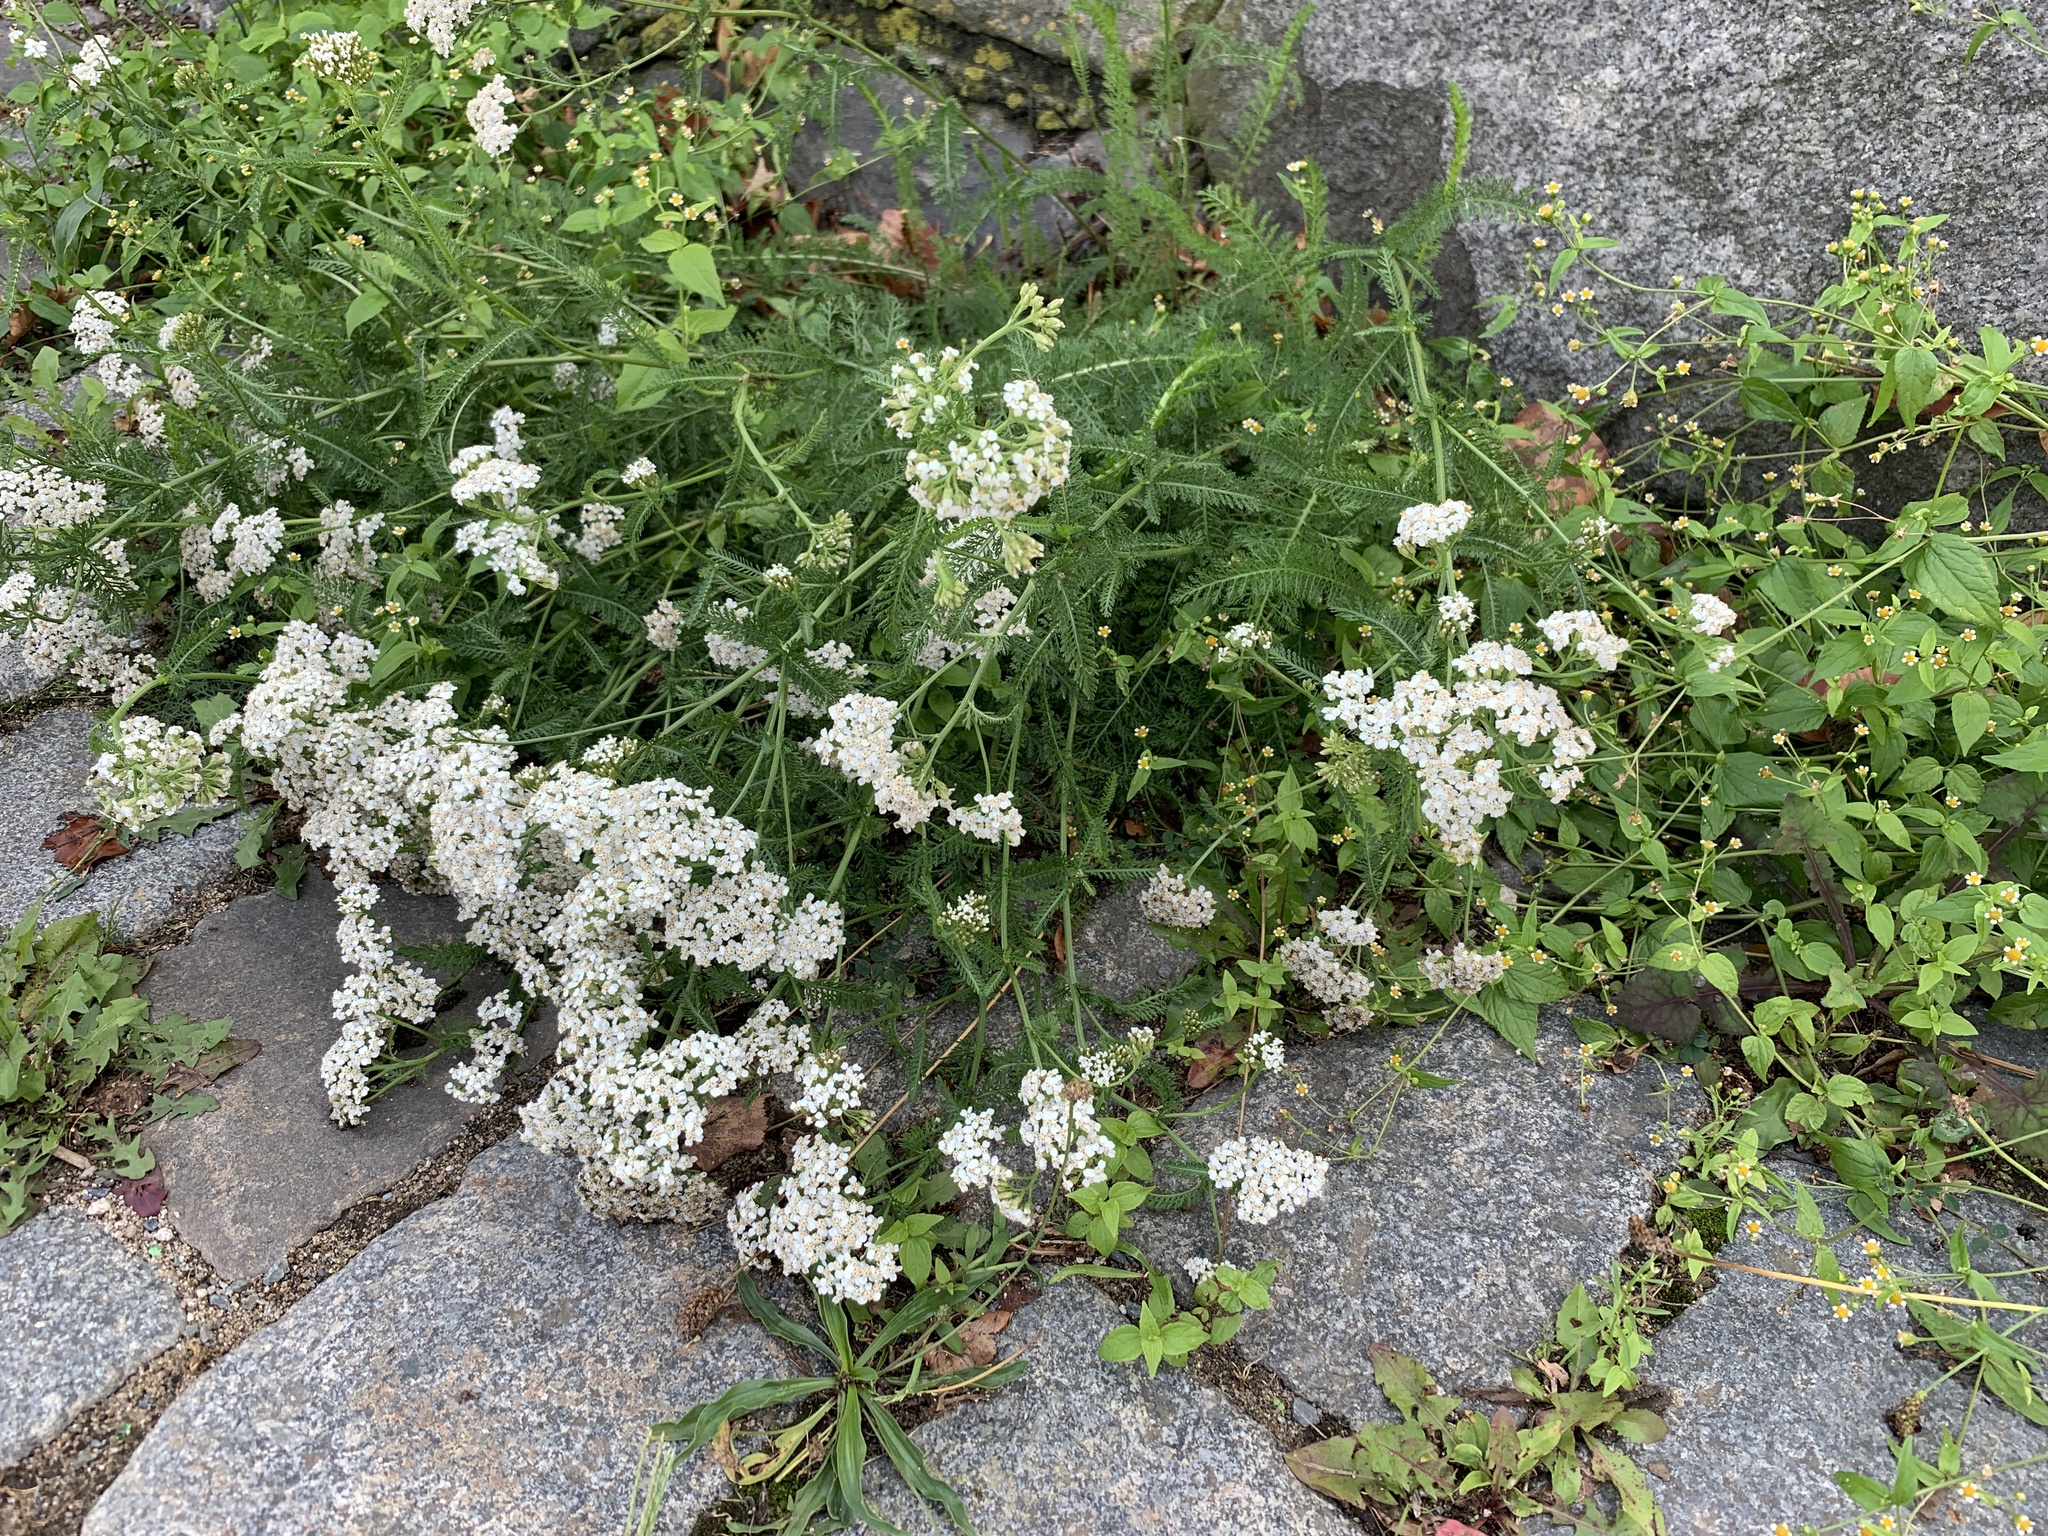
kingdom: Plantae
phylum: Tracheophyta
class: Magnoliopsida
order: Asterales
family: Asteraceae
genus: Achillea
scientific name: Achillea millefolium
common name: Yarrow
